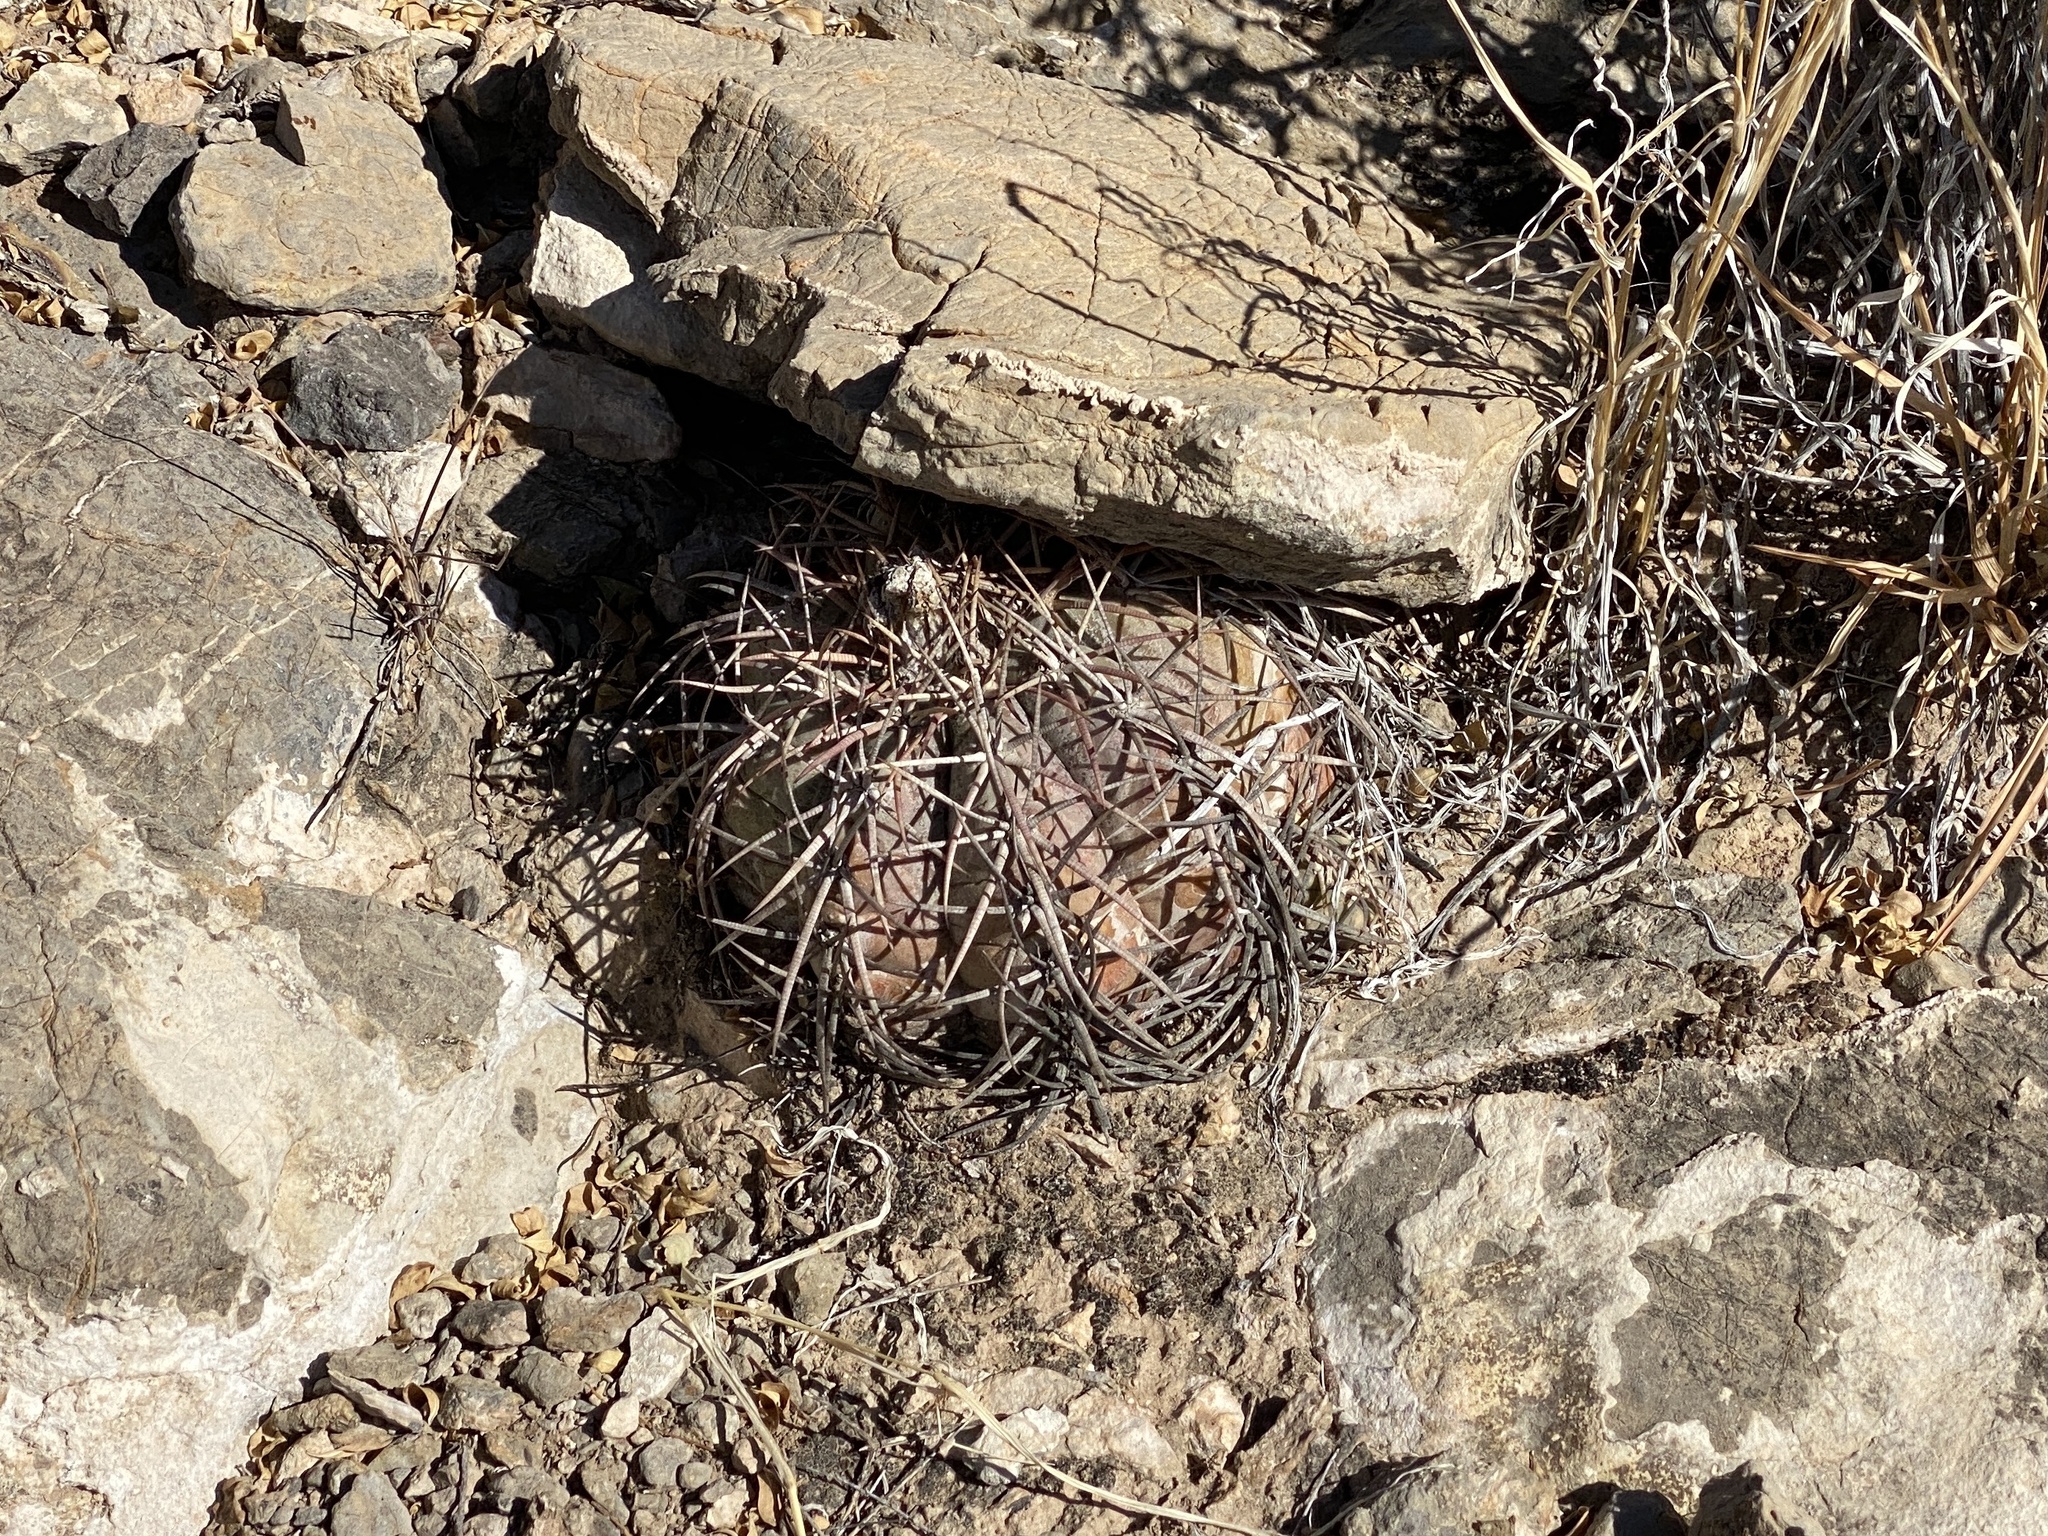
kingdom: Plantae
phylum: Tracheophyta
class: Magnoliopsida
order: Caryophyllales
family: Cactaceae
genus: Echinocactus
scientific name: Echinocactus horizonthalonius
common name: Devilshead
